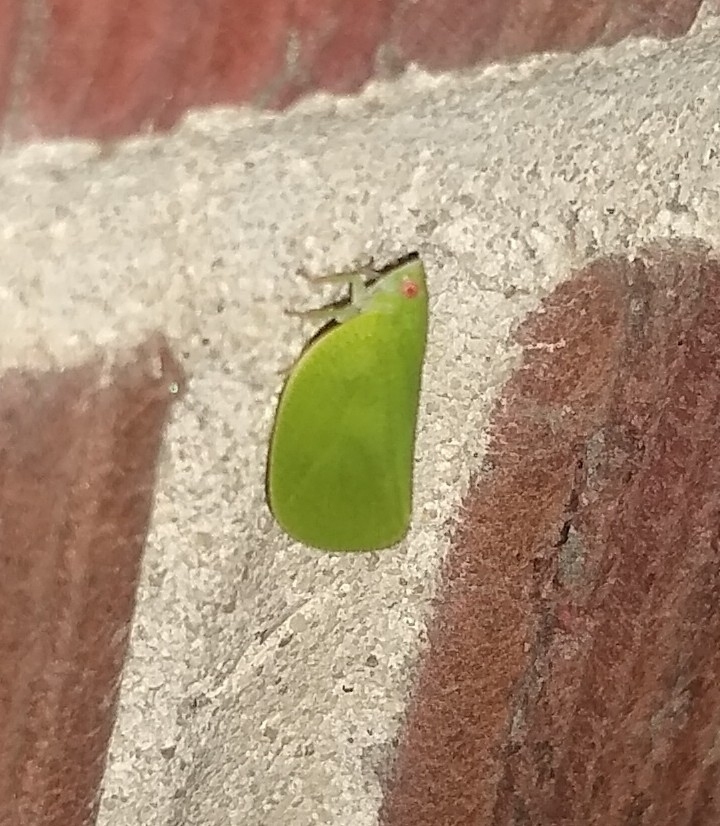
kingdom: Animalia
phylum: Arthropoda
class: Insecta
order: Hemiptera
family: Acanaloniidae
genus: Acanalonia
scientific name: Acanalonia conica
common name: Green cone-headed planthopper
